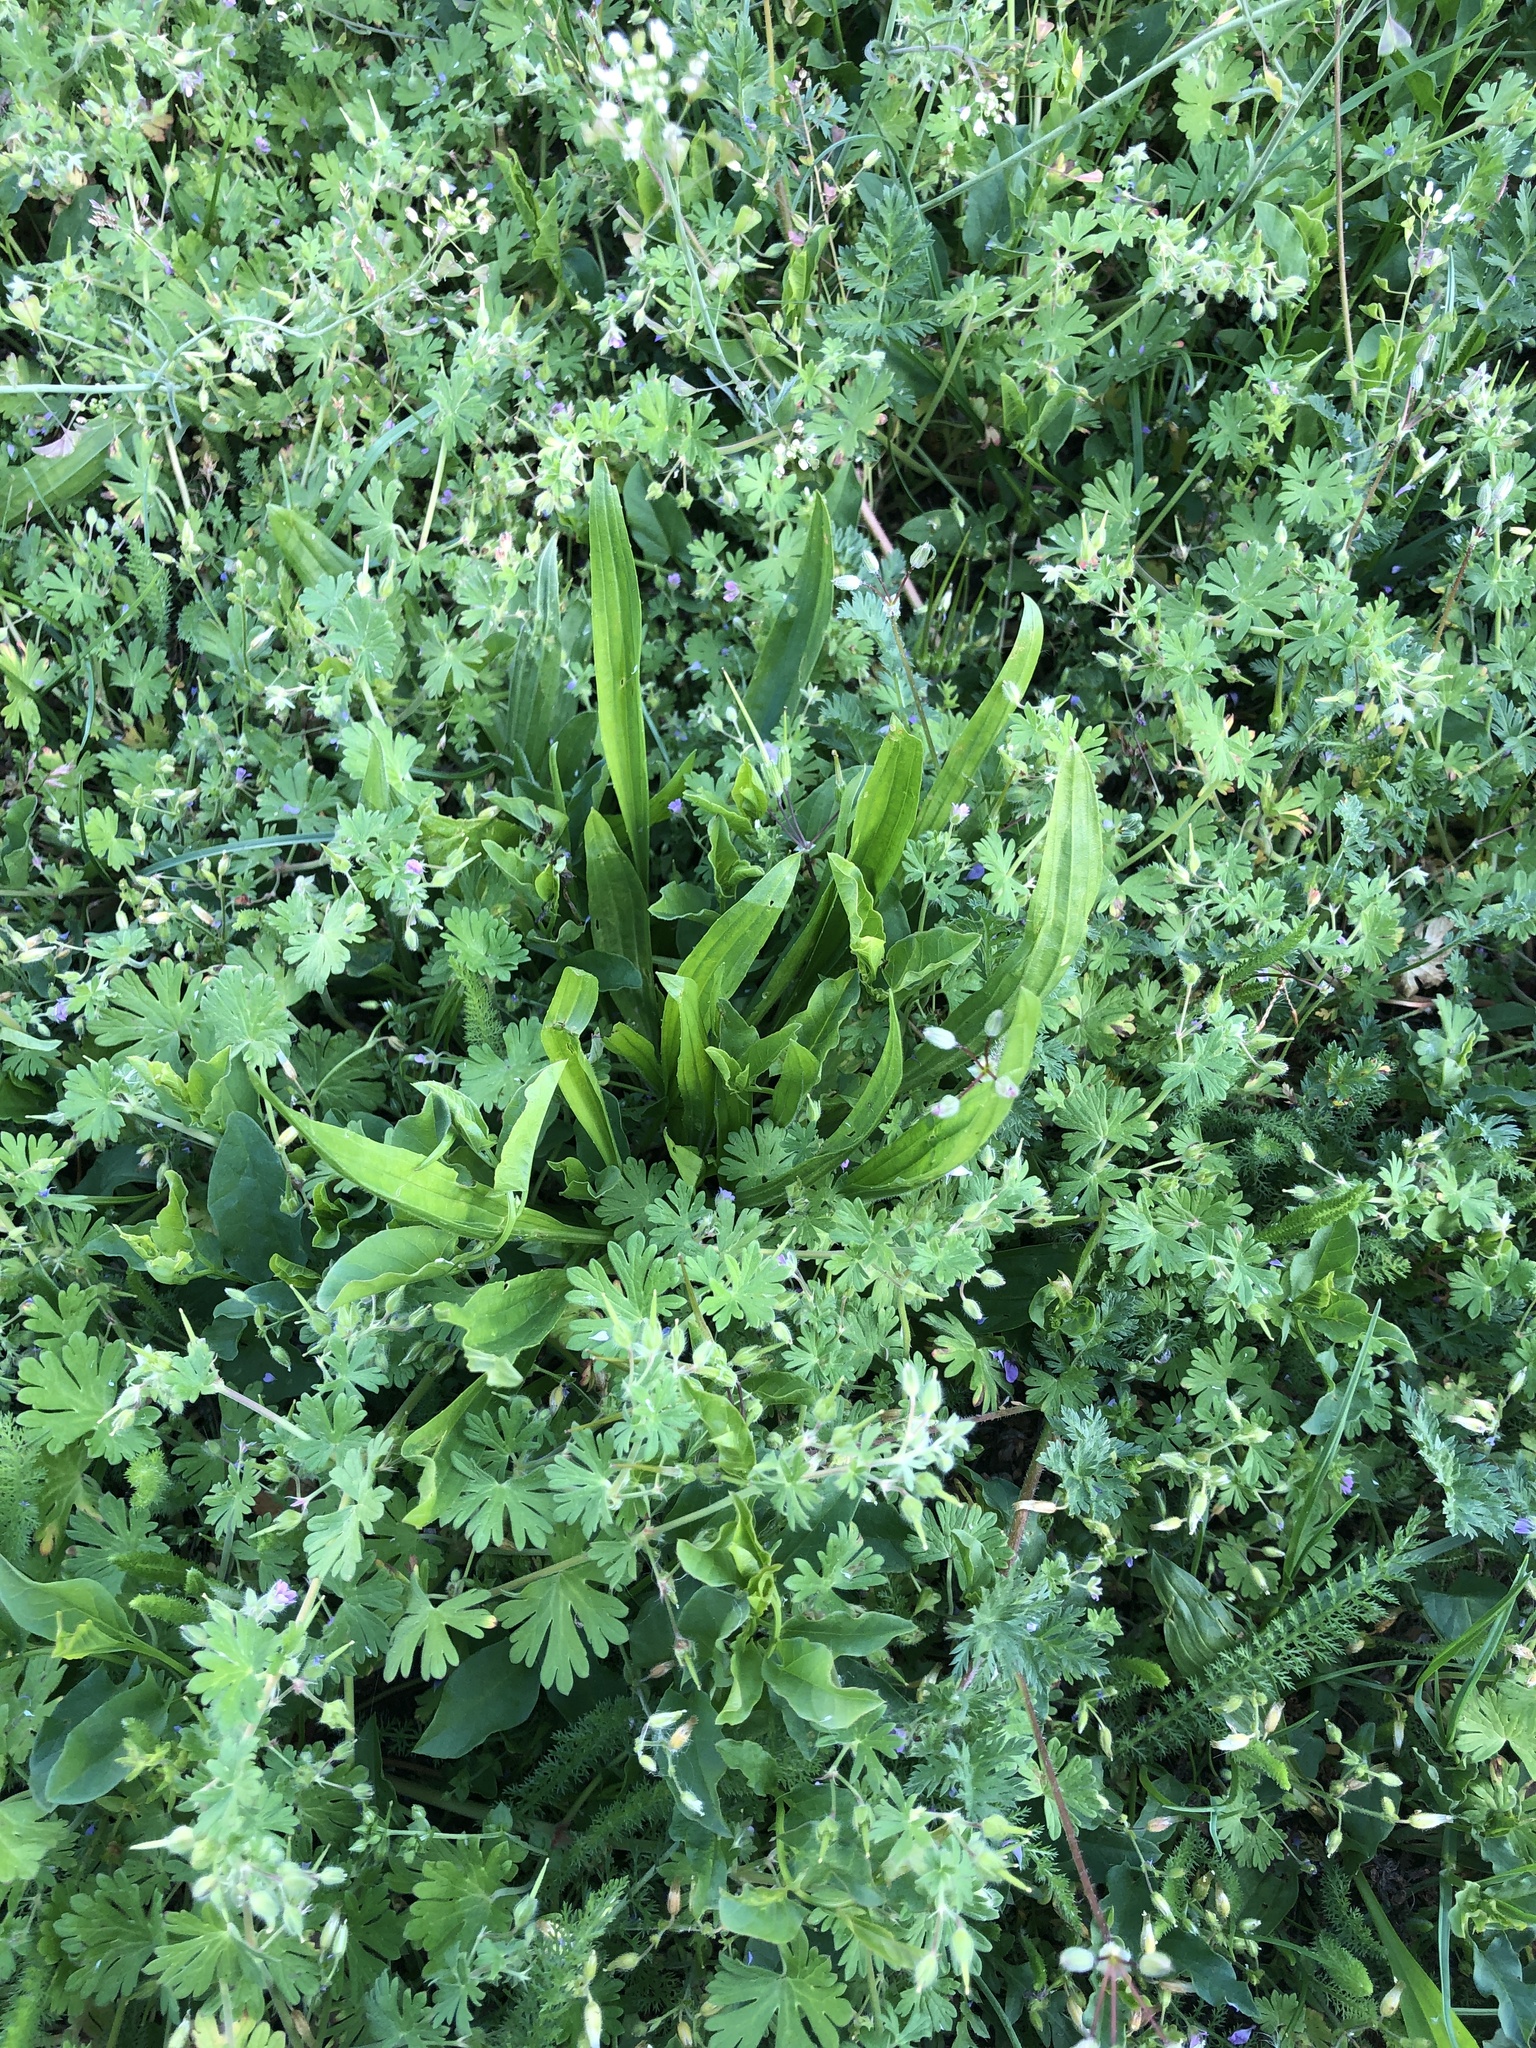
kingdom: Plantae
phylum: Tracheophyta
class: Magnoliopsida
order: Lamiales
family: Plantaginaceae
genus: Plantago
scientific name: Plantago lanceolata
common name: Ribwort plantain
